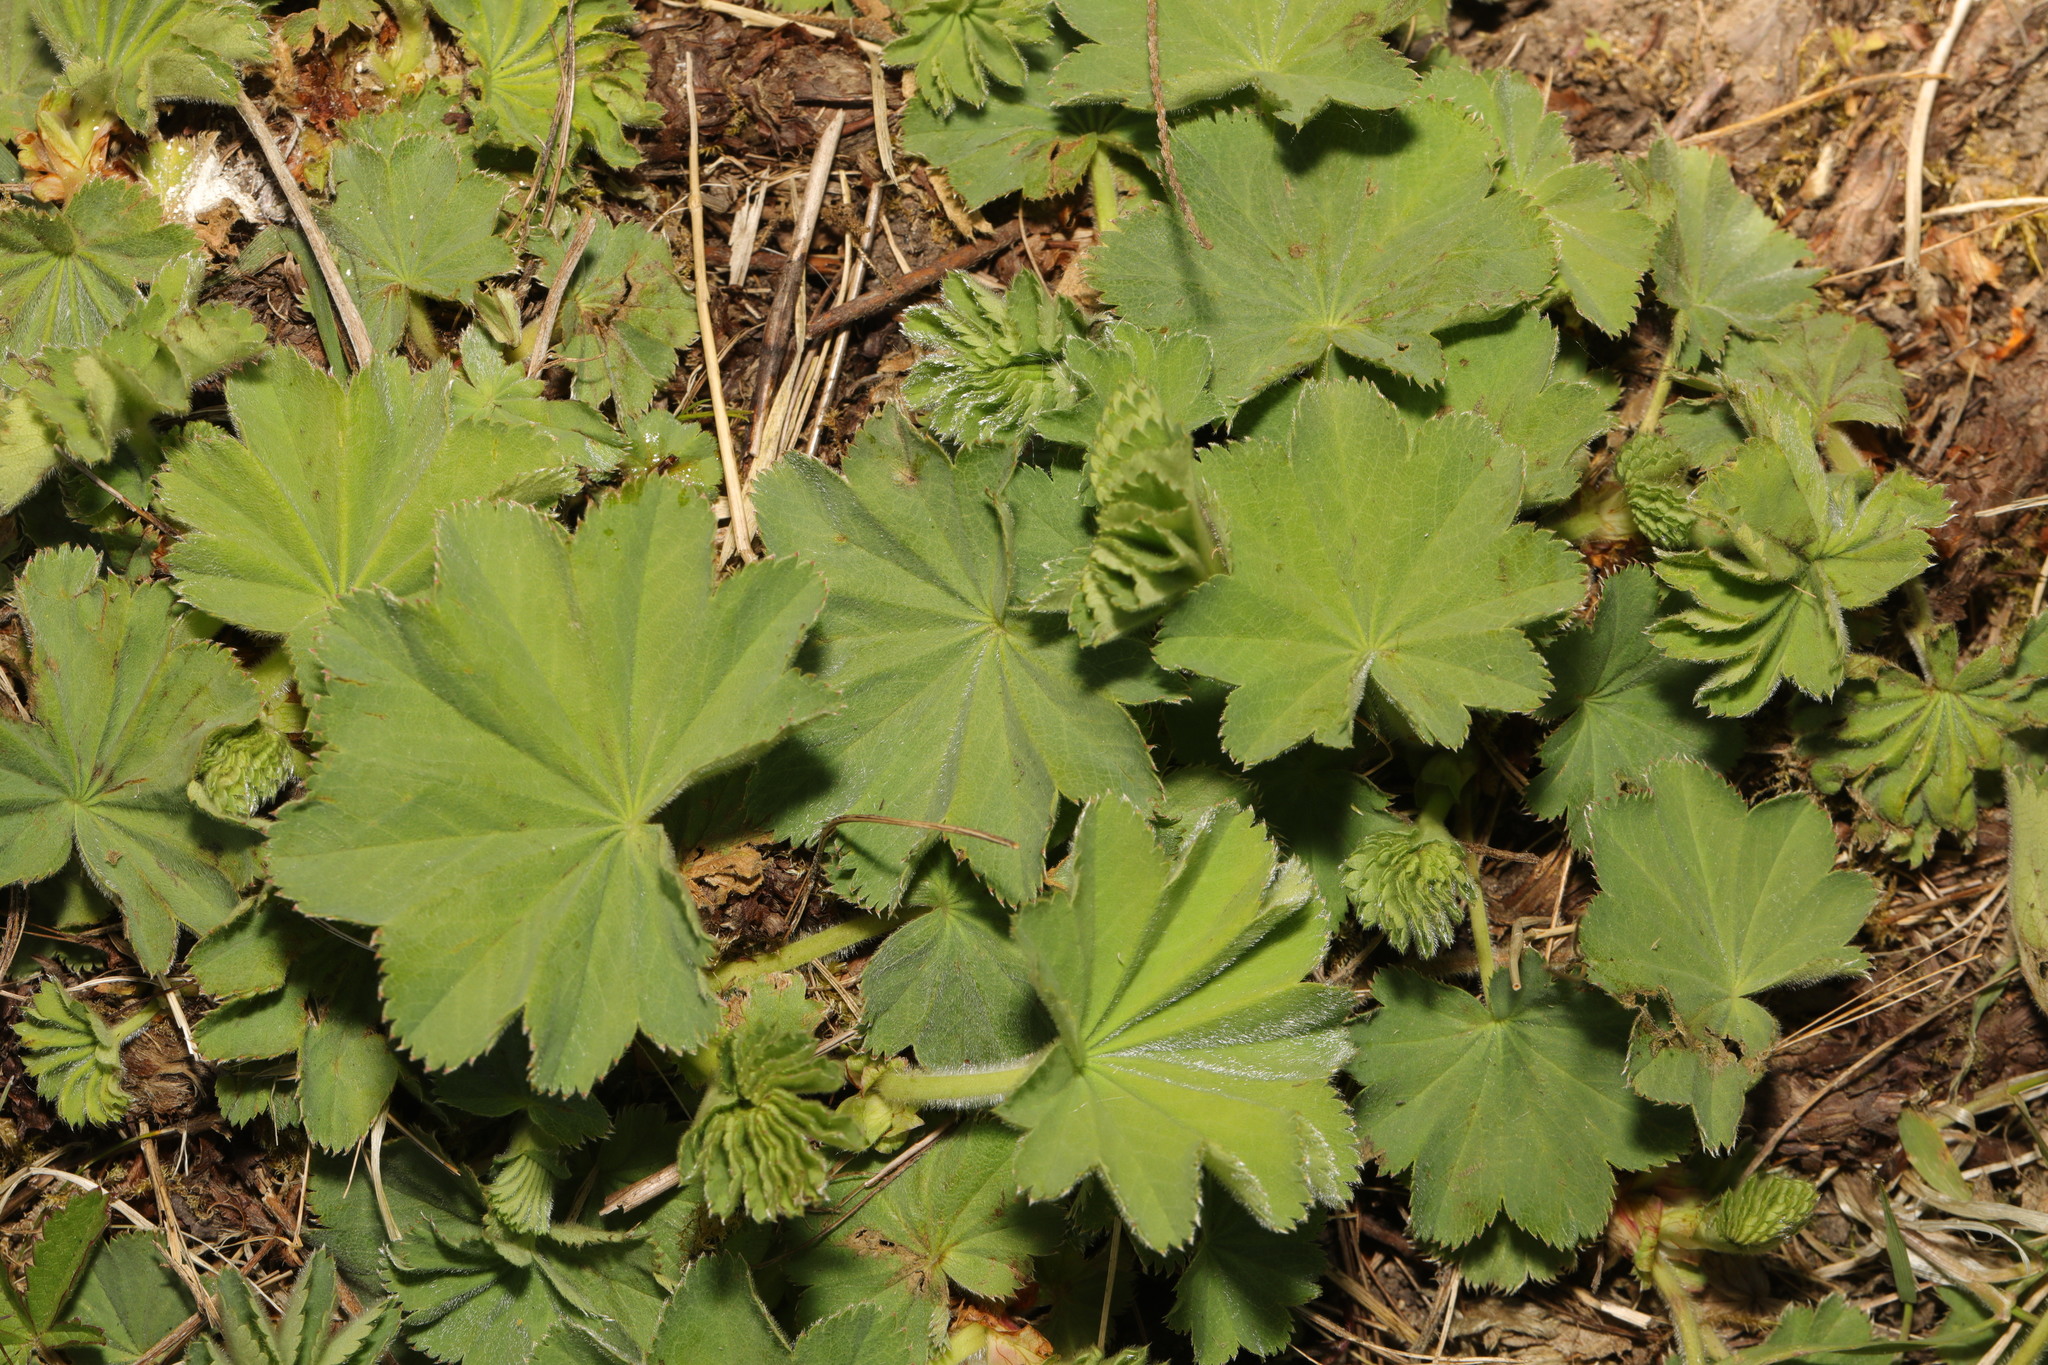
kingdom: Plantae
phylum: Tracheophyta
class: Magnoliopsida
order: Rosales
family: Rosaceae
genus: Alchemilla
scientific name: Alchemilla mollis
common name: Lady's-mantle
